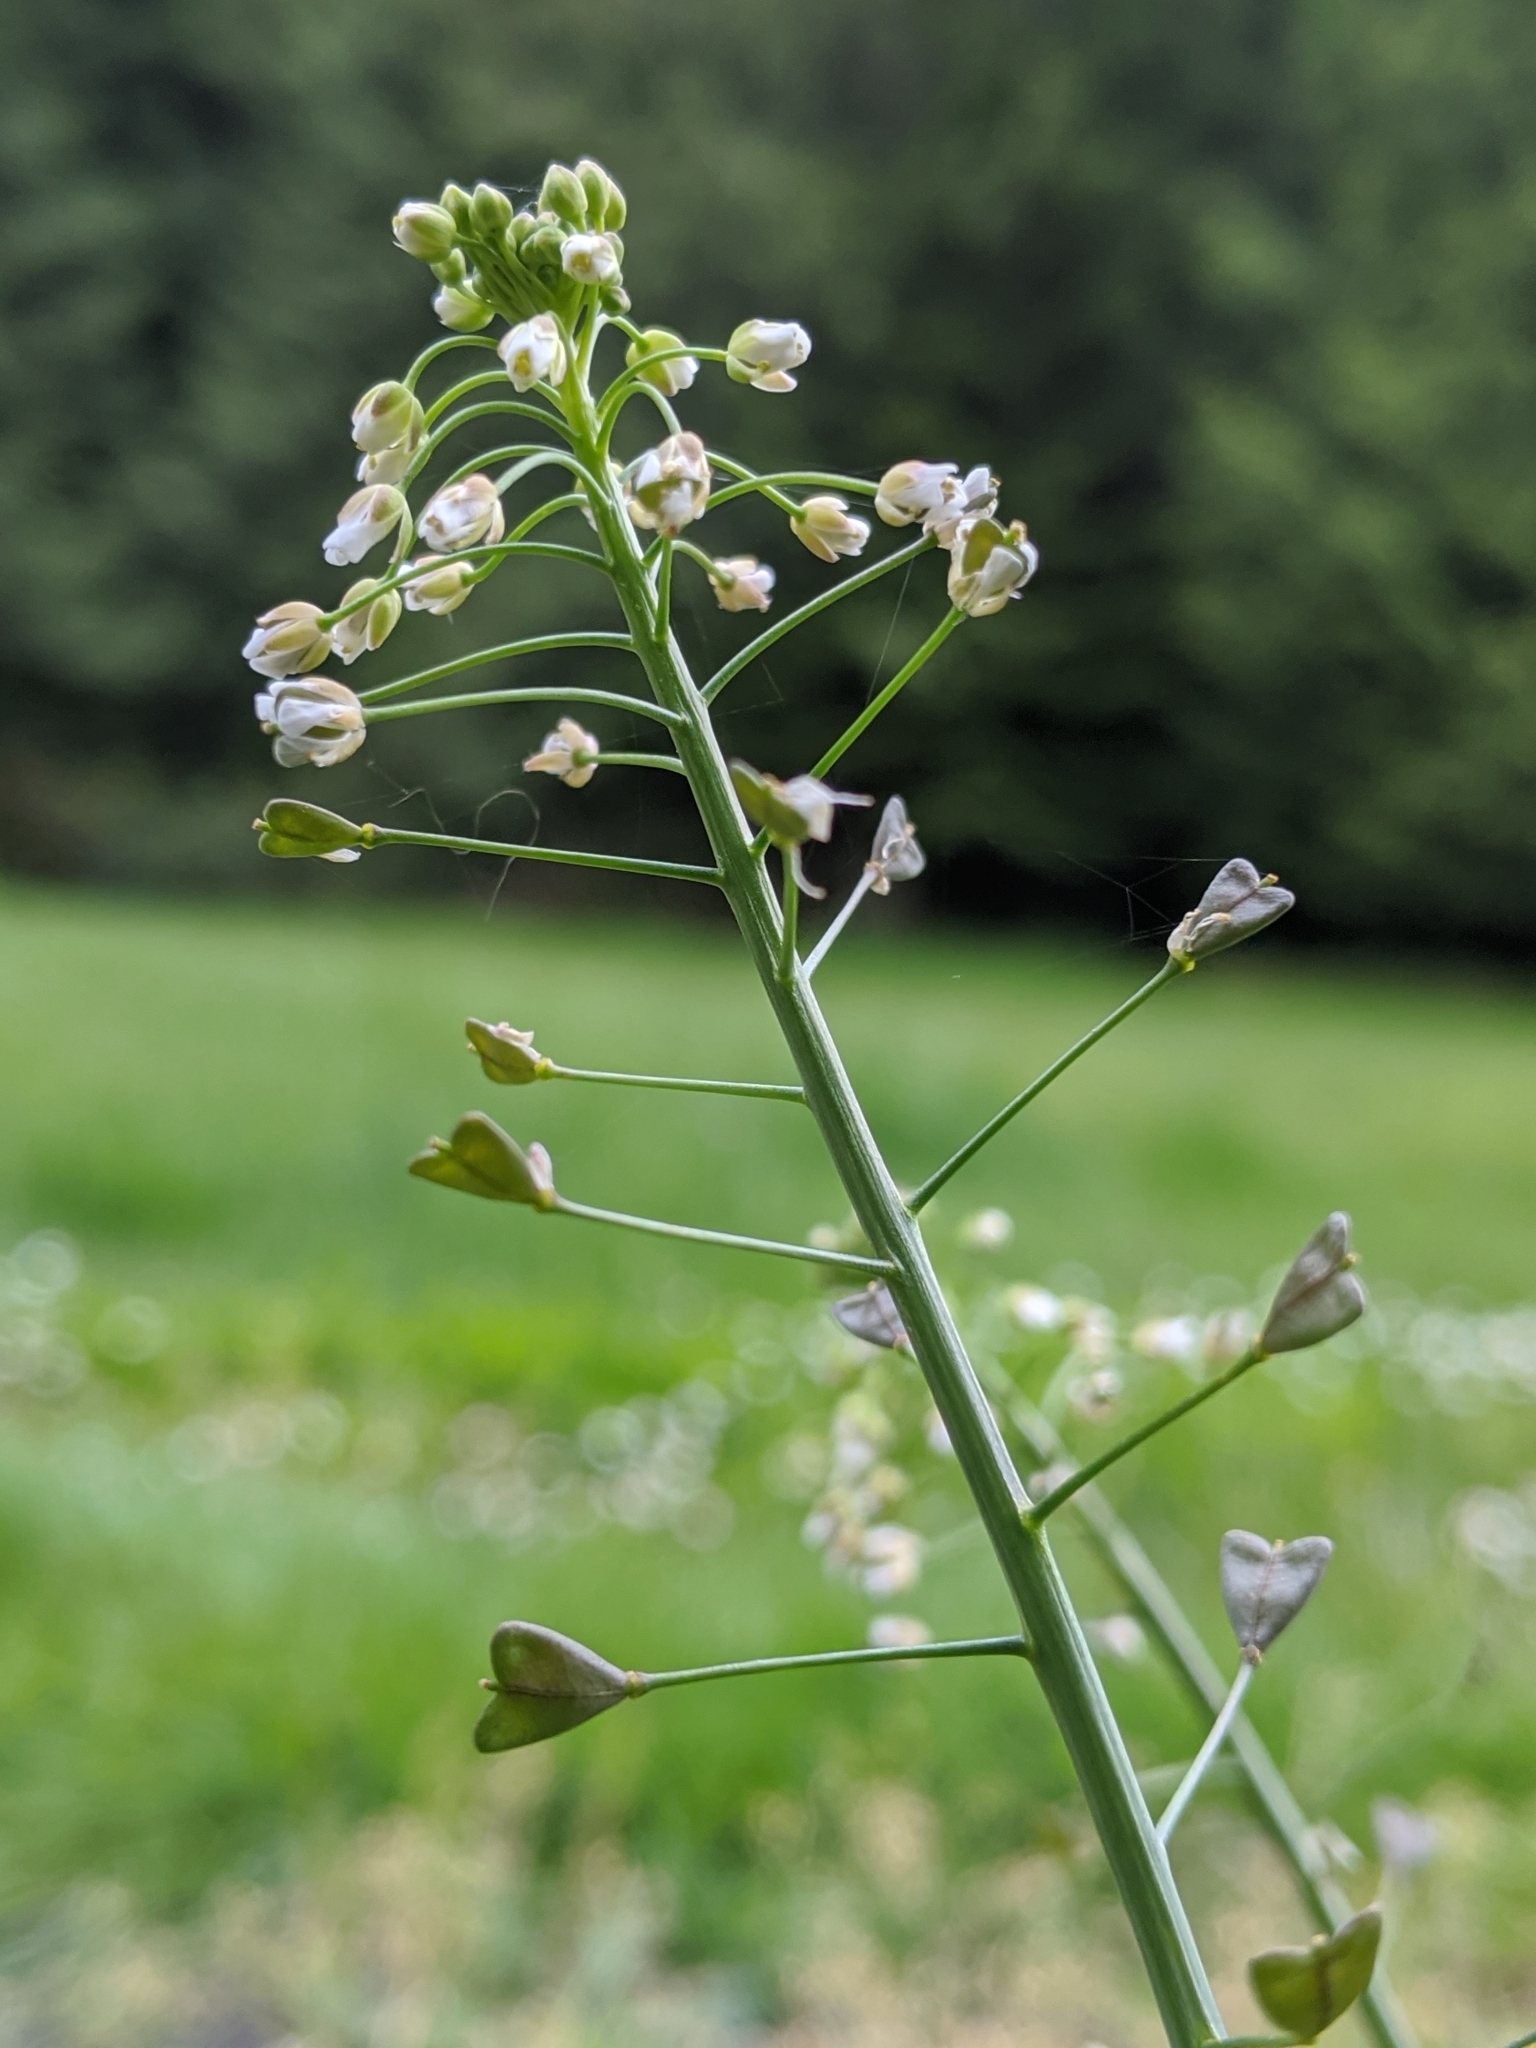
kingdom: Plantae
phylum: Tracheophyta
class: Magnoliopsida
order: Brassicales
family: Brassicaceae
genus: Capsella
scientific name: Capsella bursa-pastoris
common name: Shepherd's purse
